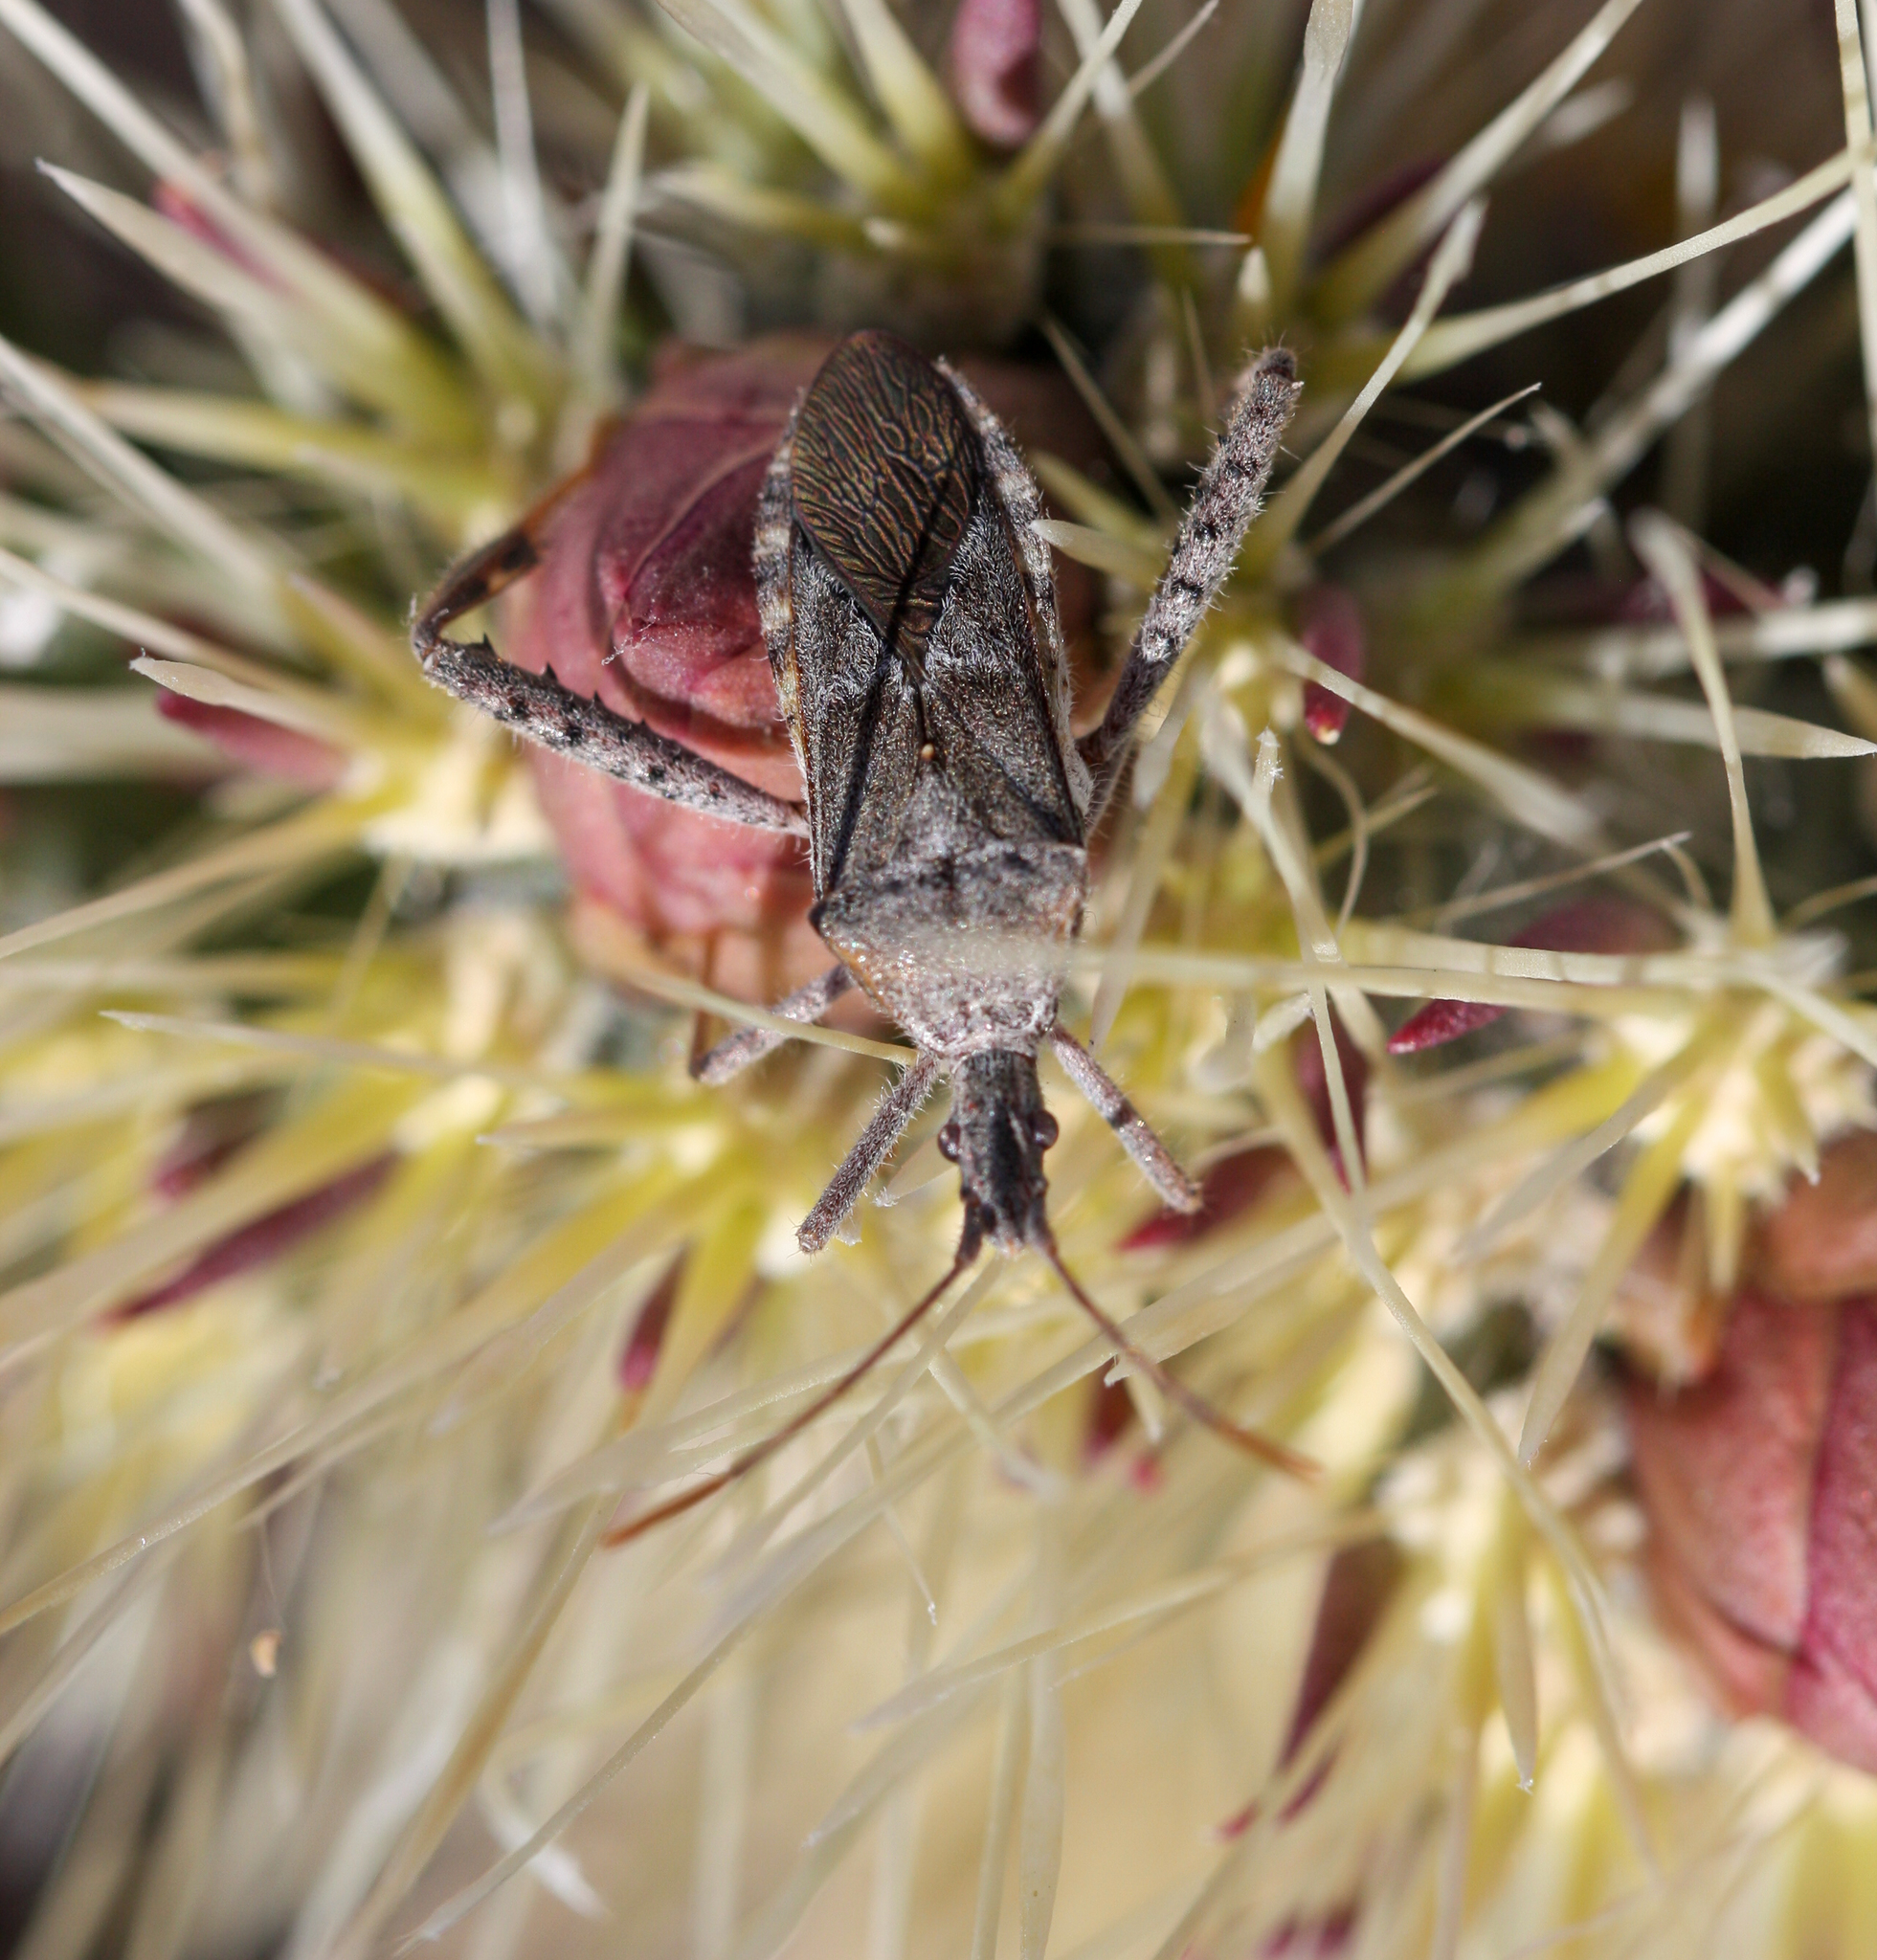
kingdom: Animalia
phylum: Arthropoda
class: Insecta
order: Hemiptera
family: Coreidae
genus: Narnia
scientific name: Narnia femorata
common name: Leaf-footed cactus bug
